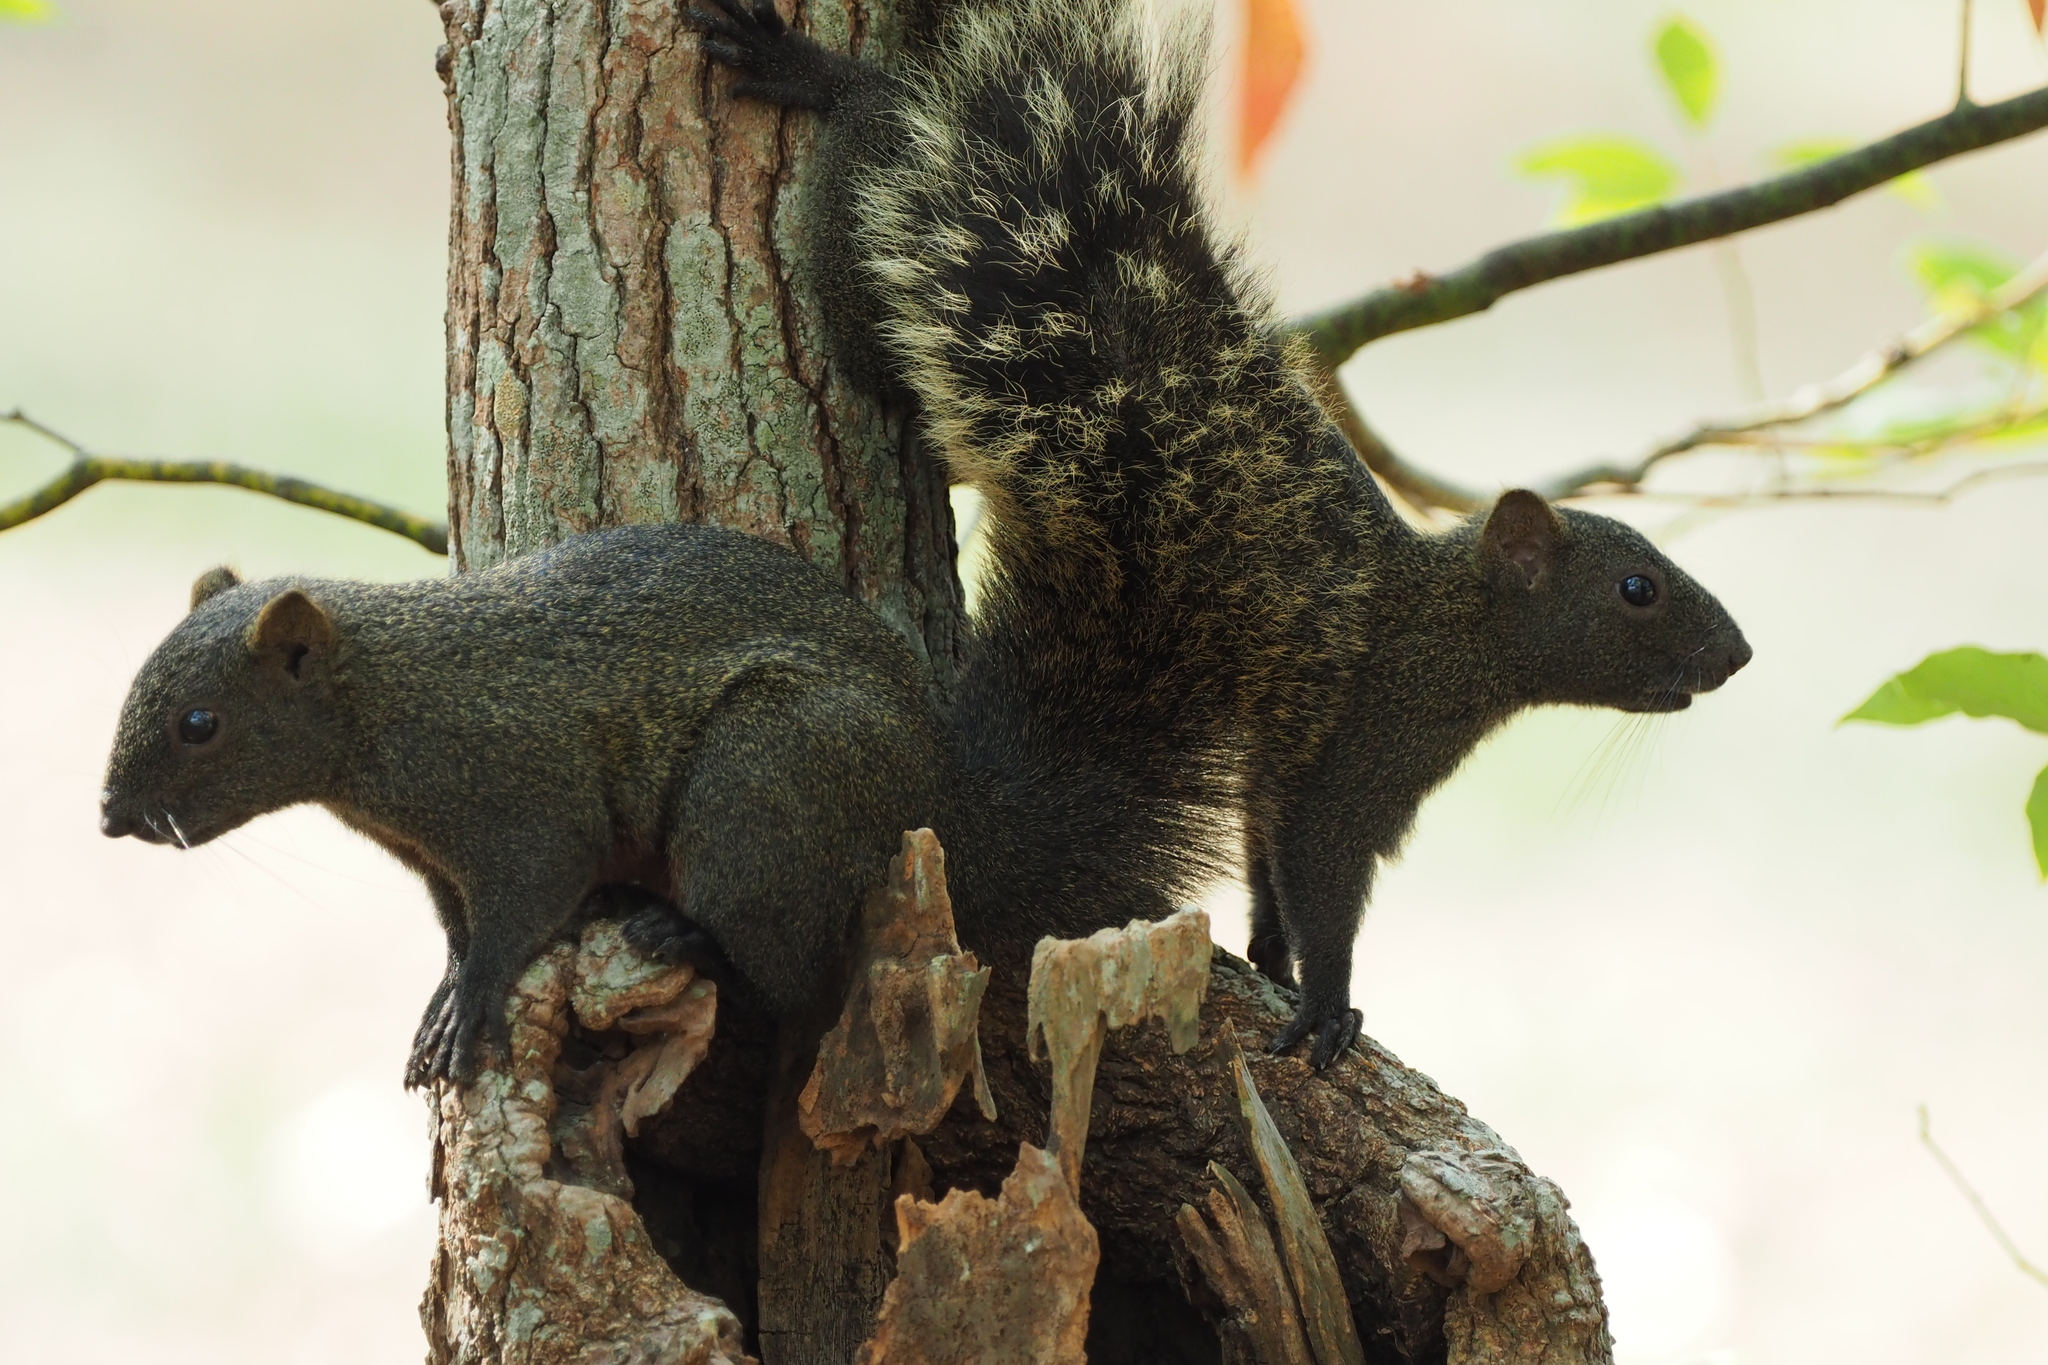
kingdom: Animalia
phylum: Chordata
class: Mammalia
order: Rodentia
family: Sciuridae
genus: Callosciurus
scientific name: Callosciurus erythraeus
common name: Pallas's squirrel
